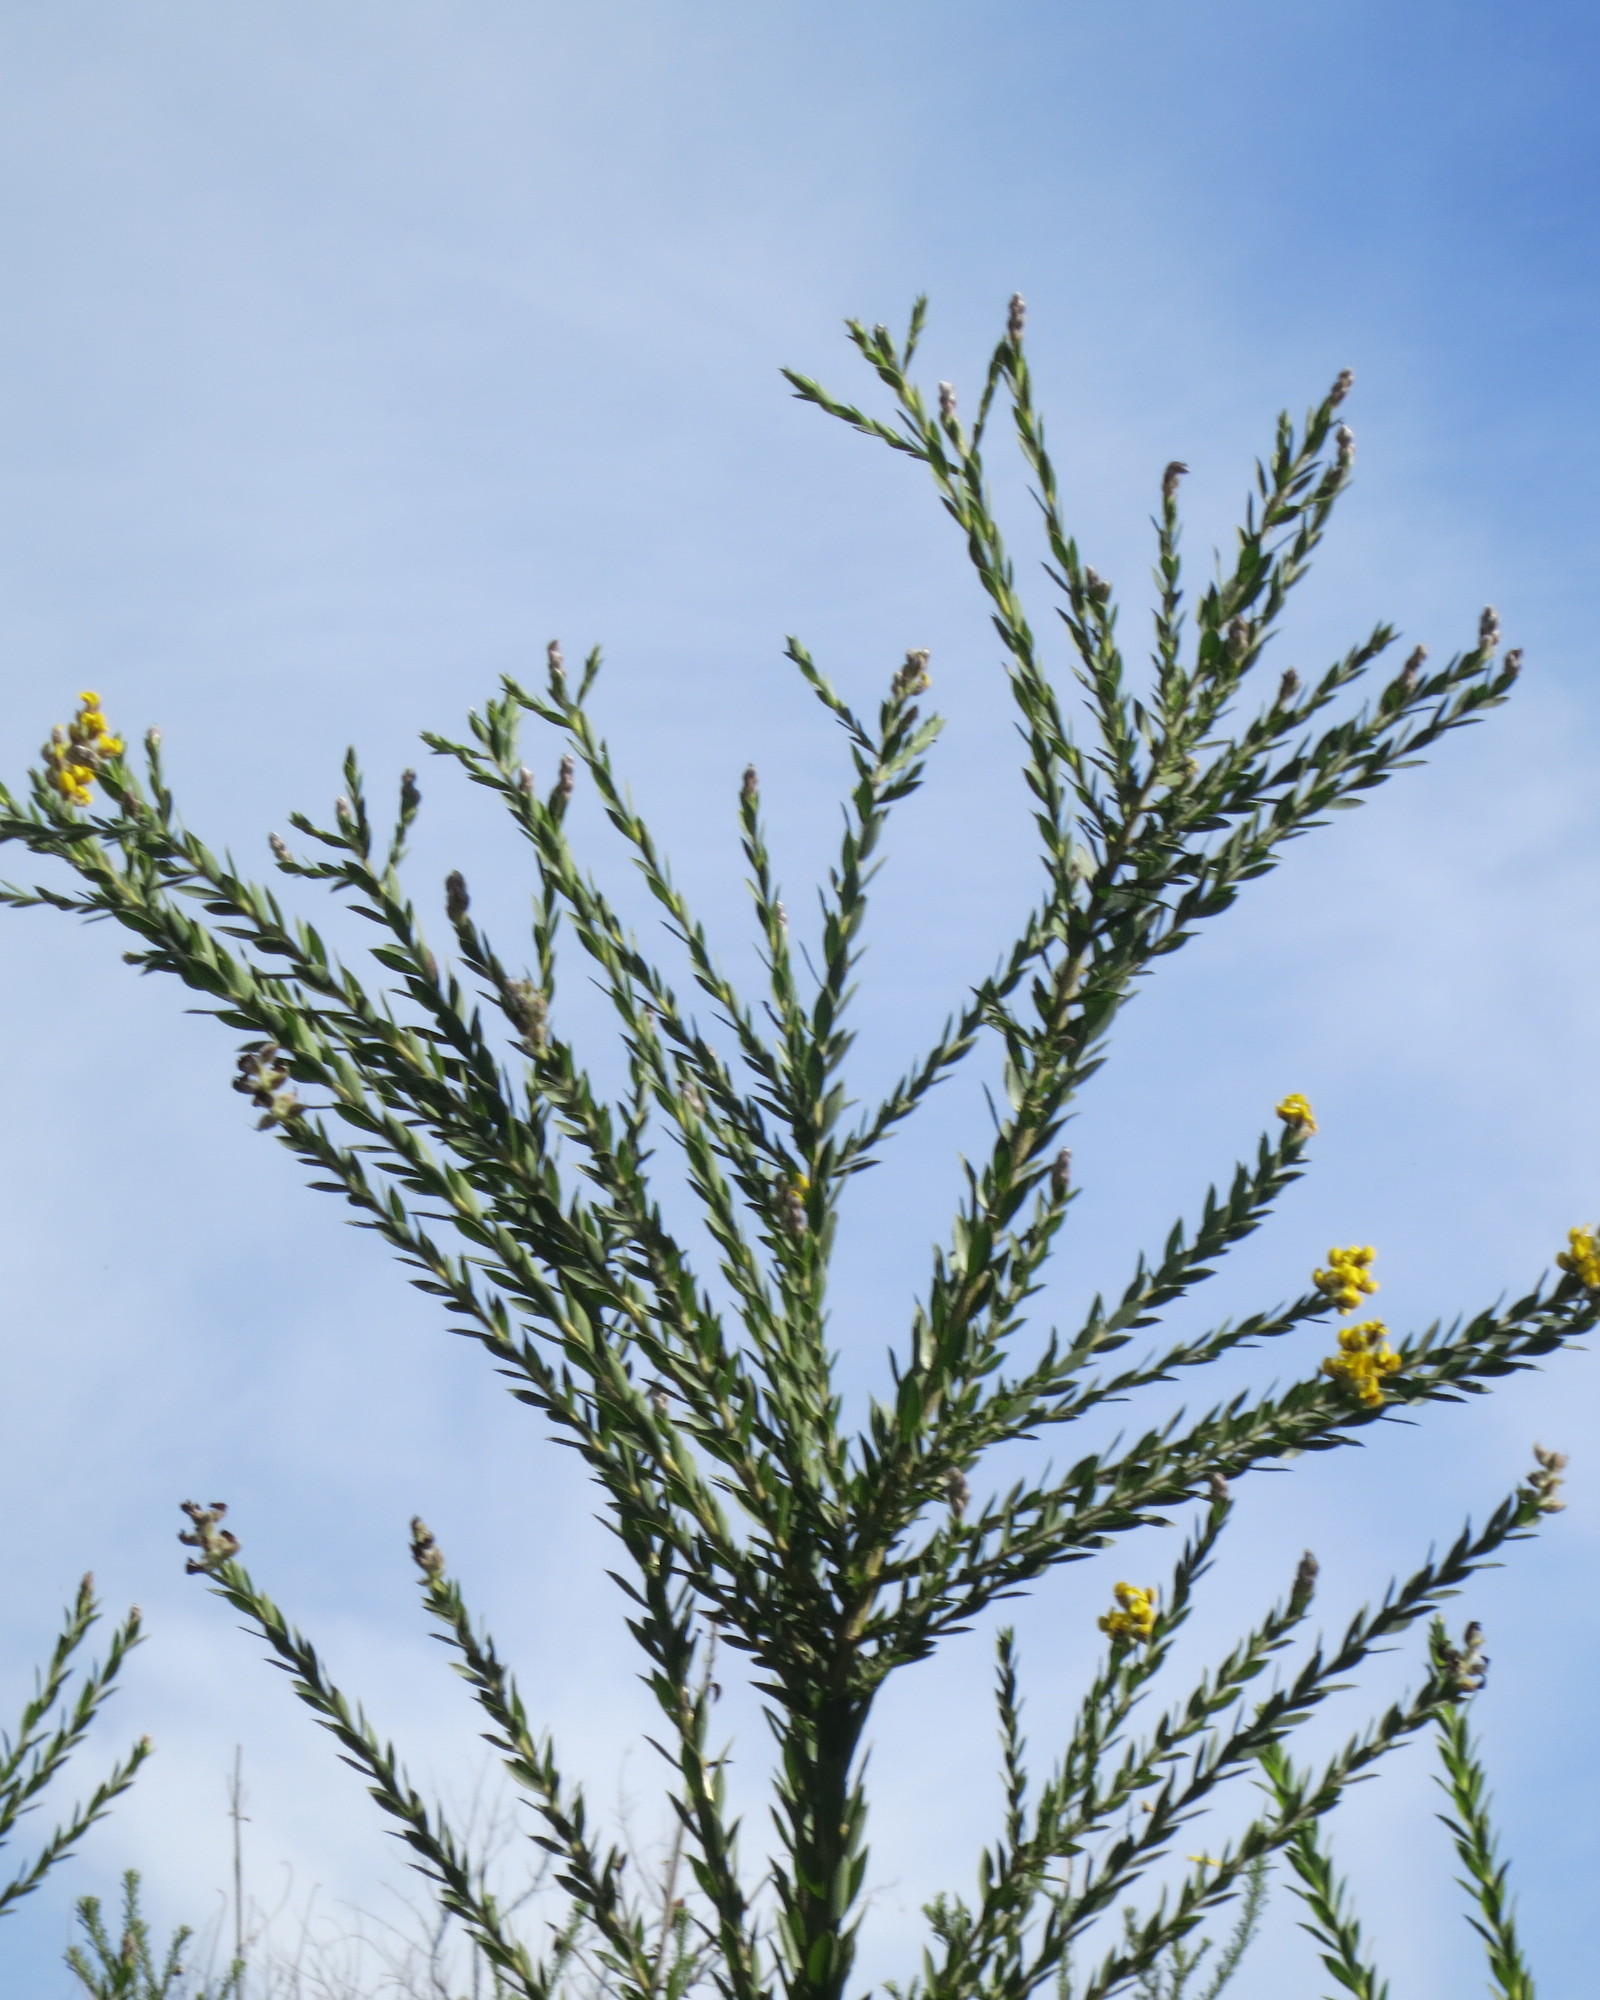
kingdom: Plantae
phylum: Tracheophyta
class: Magnoliopsida
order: Fabales
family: Fabaceae
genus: Liparia
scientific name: Liparia hirsuta
